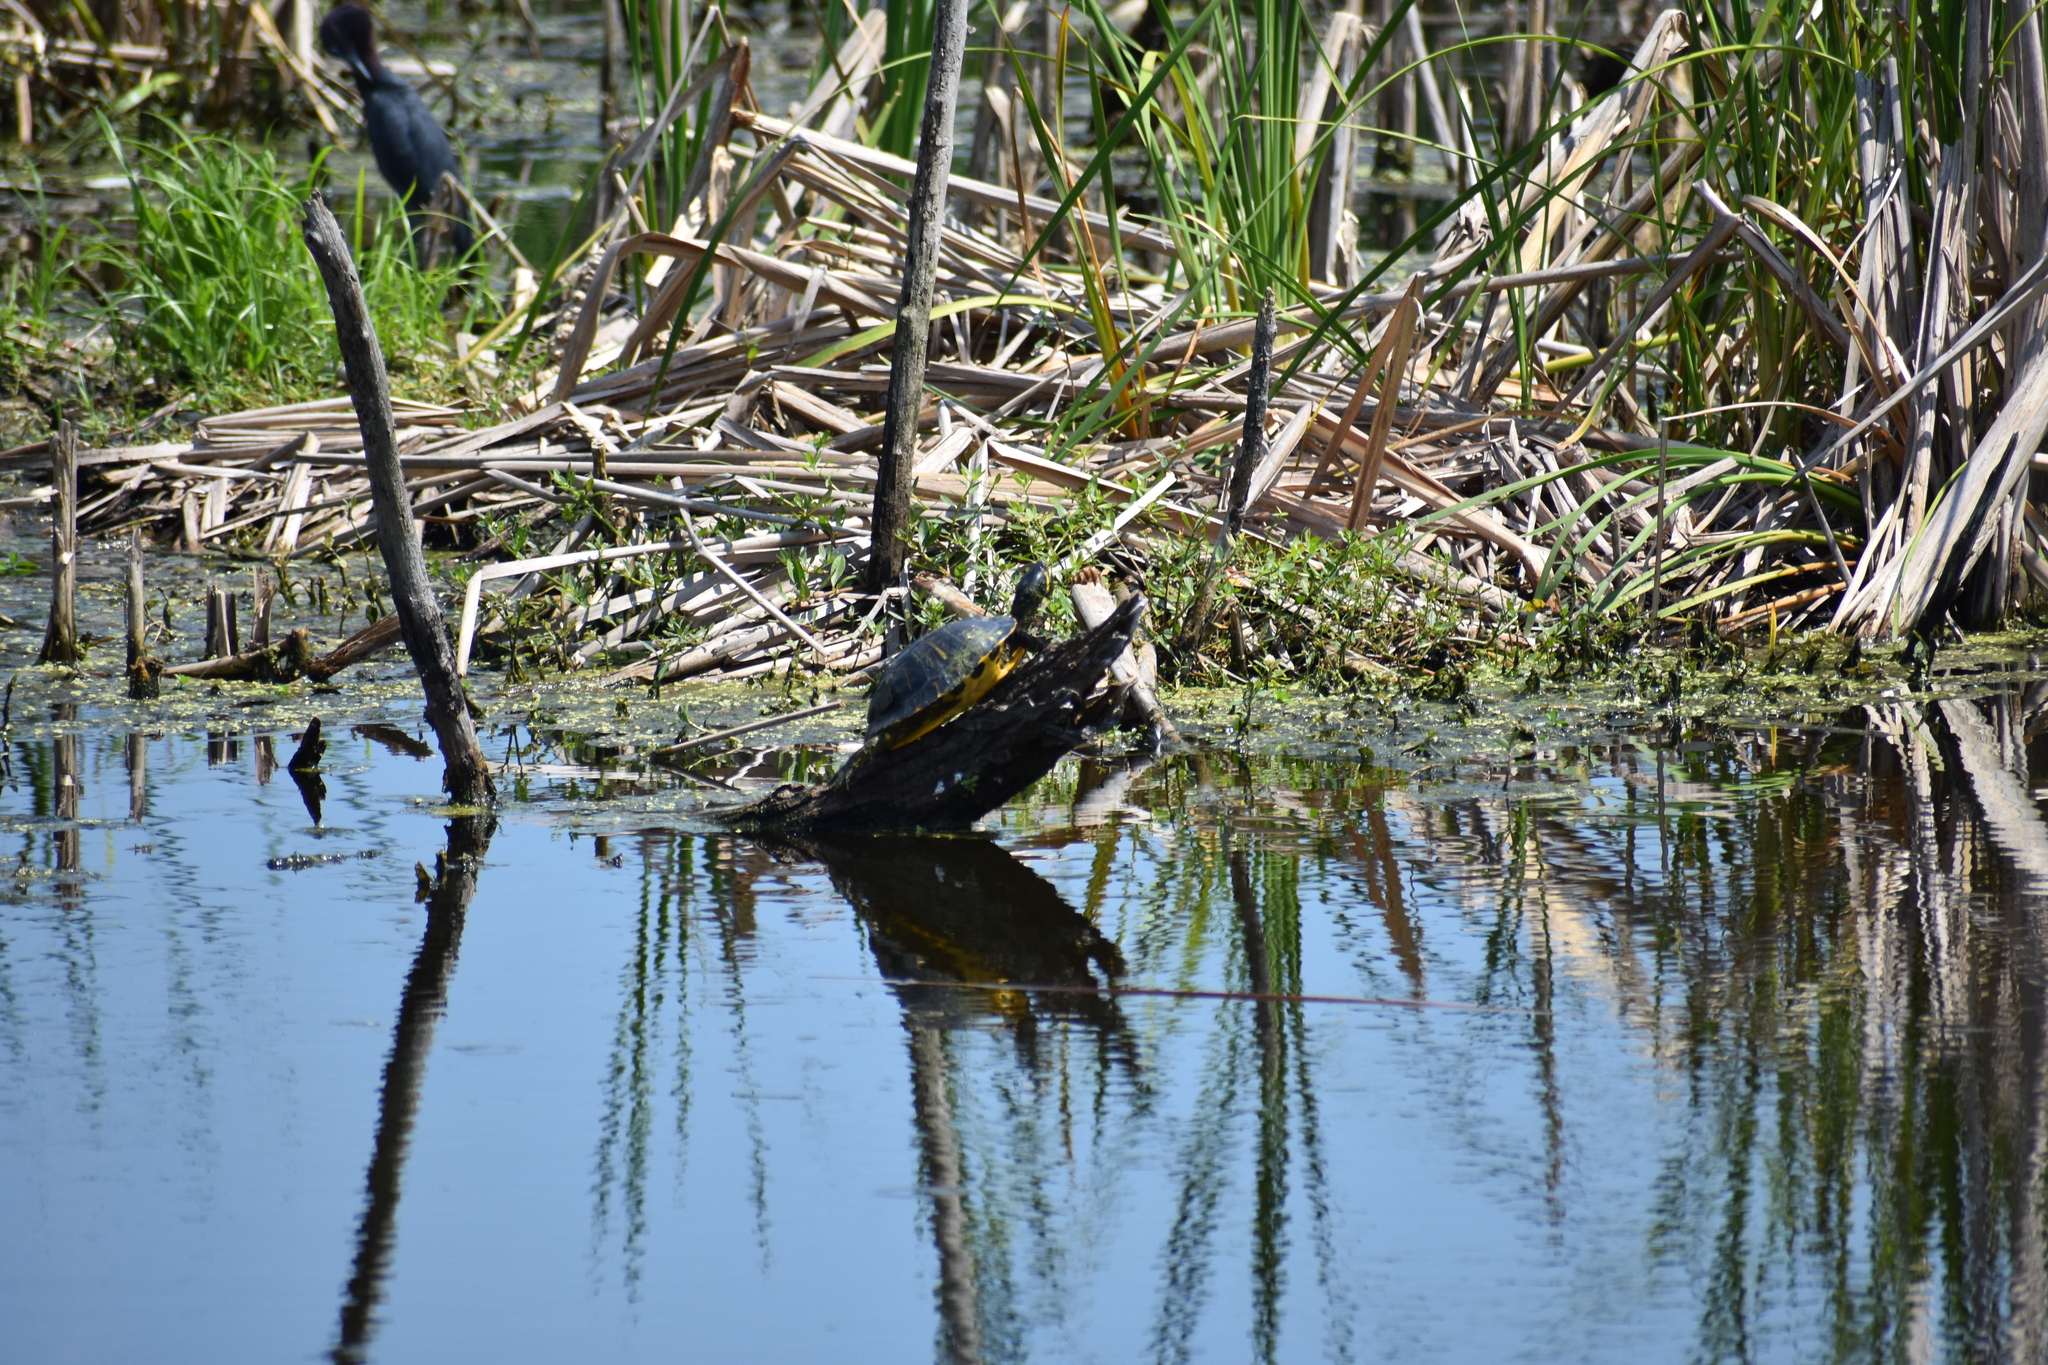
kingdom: Animalia
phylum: Chordata
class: Testudines
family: Emydidae
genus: Trachemys
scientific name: Trachemys scripta
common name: Slider
